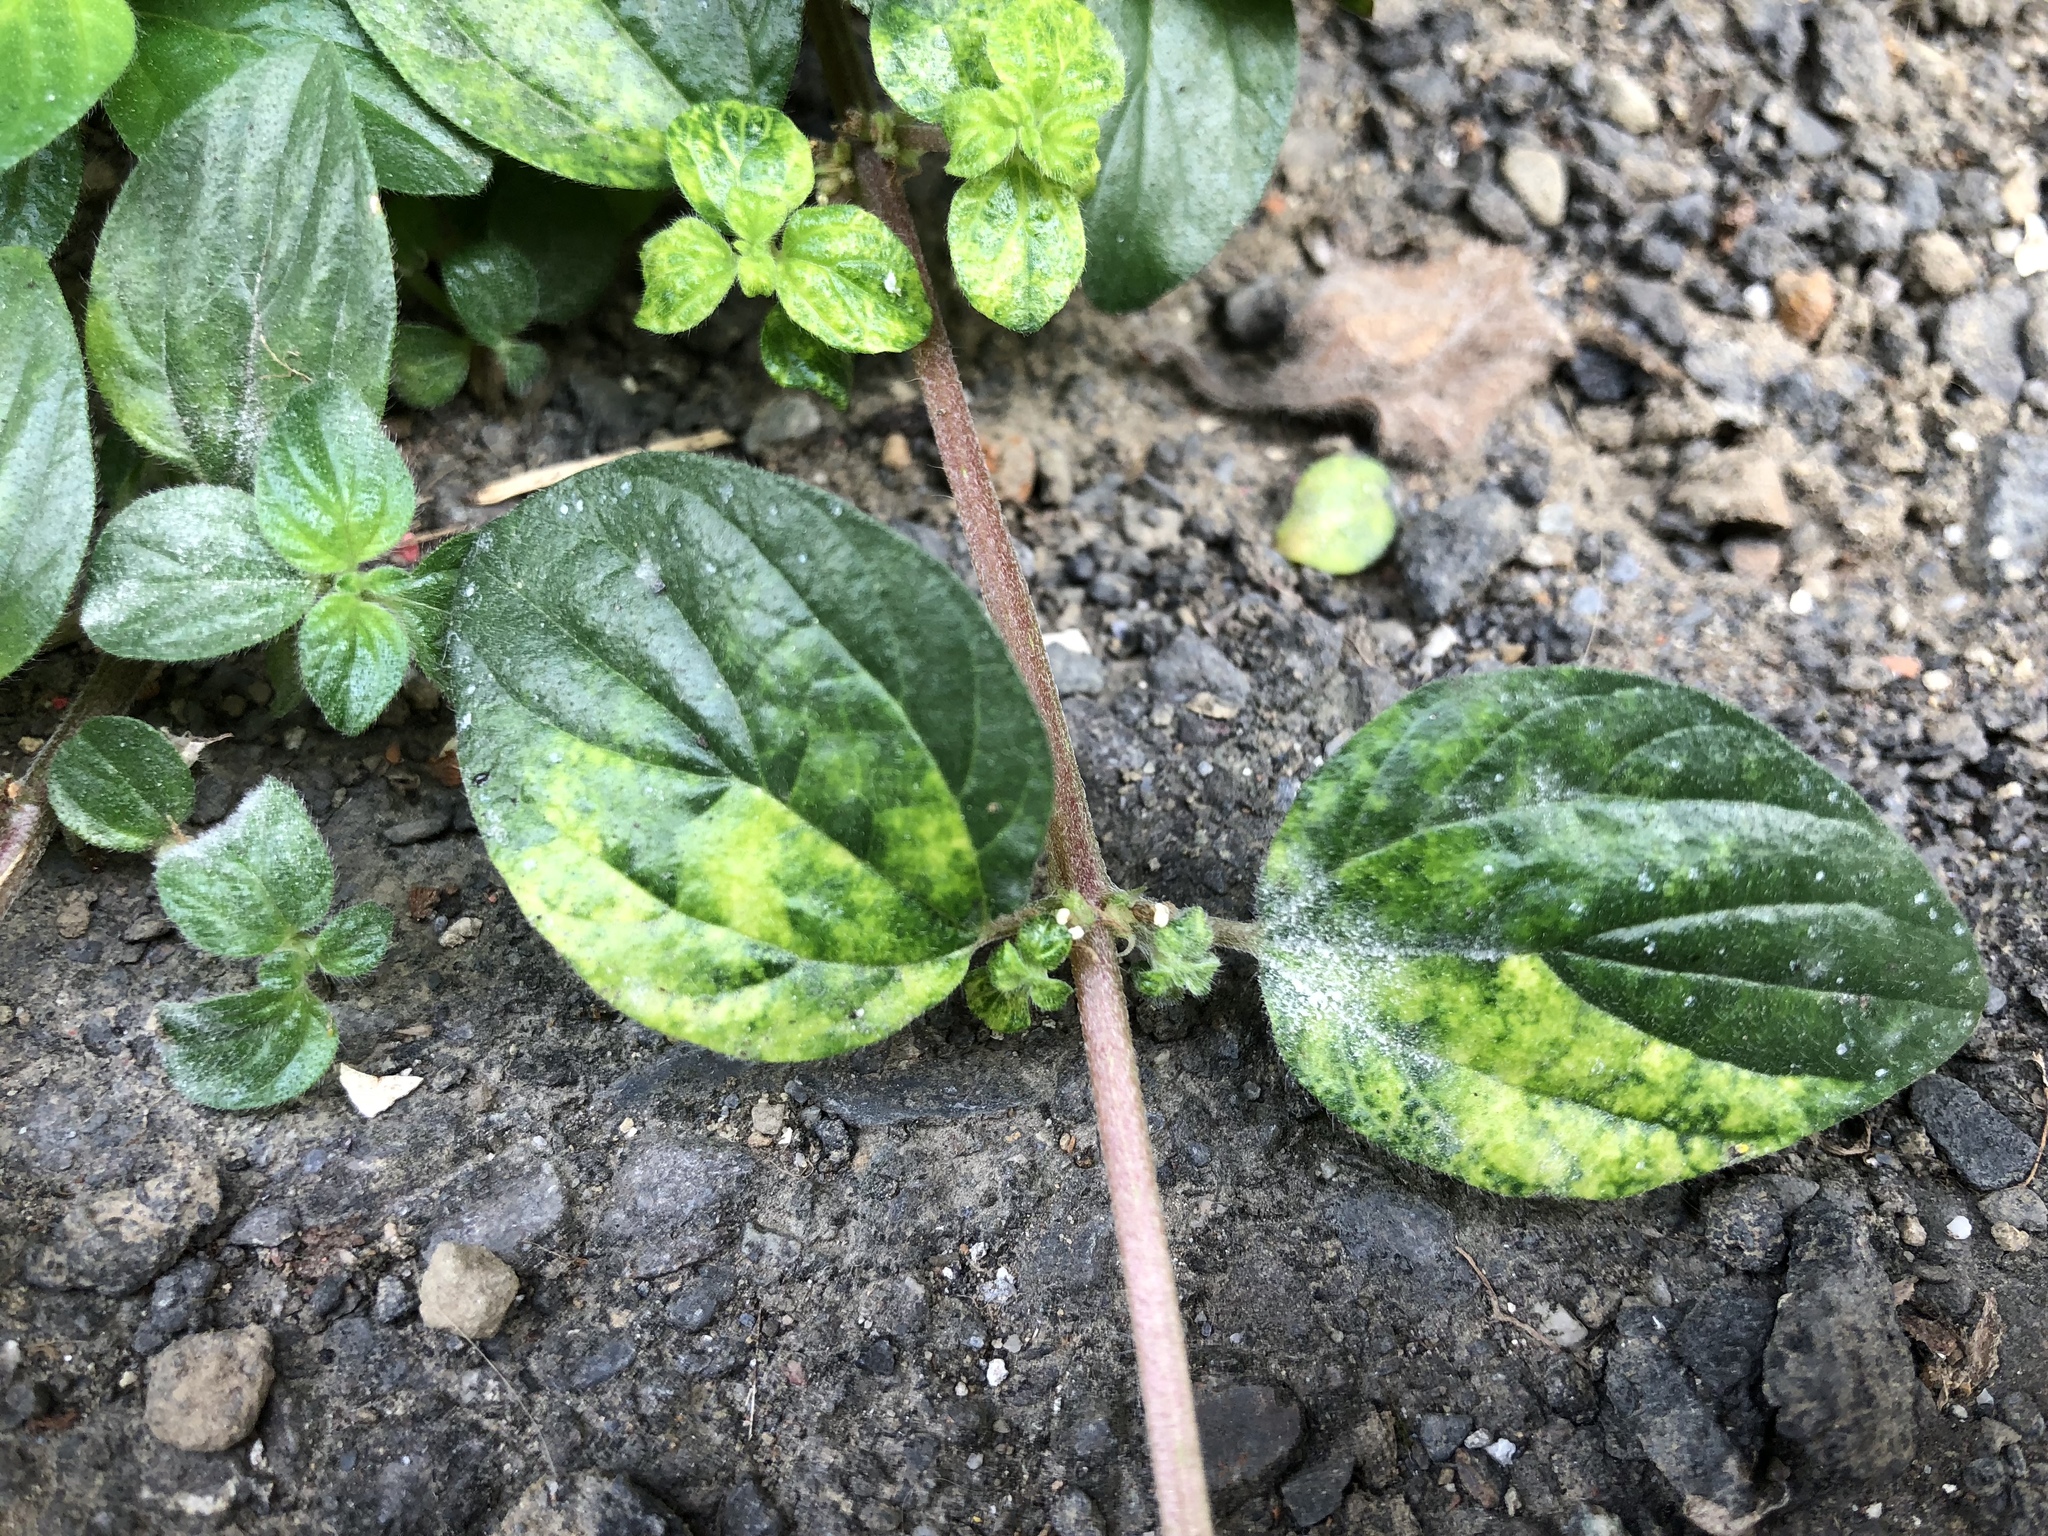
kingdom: Plantae
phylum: Tracheophyta
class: Magnoliopsida
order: Rosales
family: Urticaceae
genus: Pouzolzia
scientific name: Pouzolzia zeylanica
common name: Graceful pouzolzsbush
